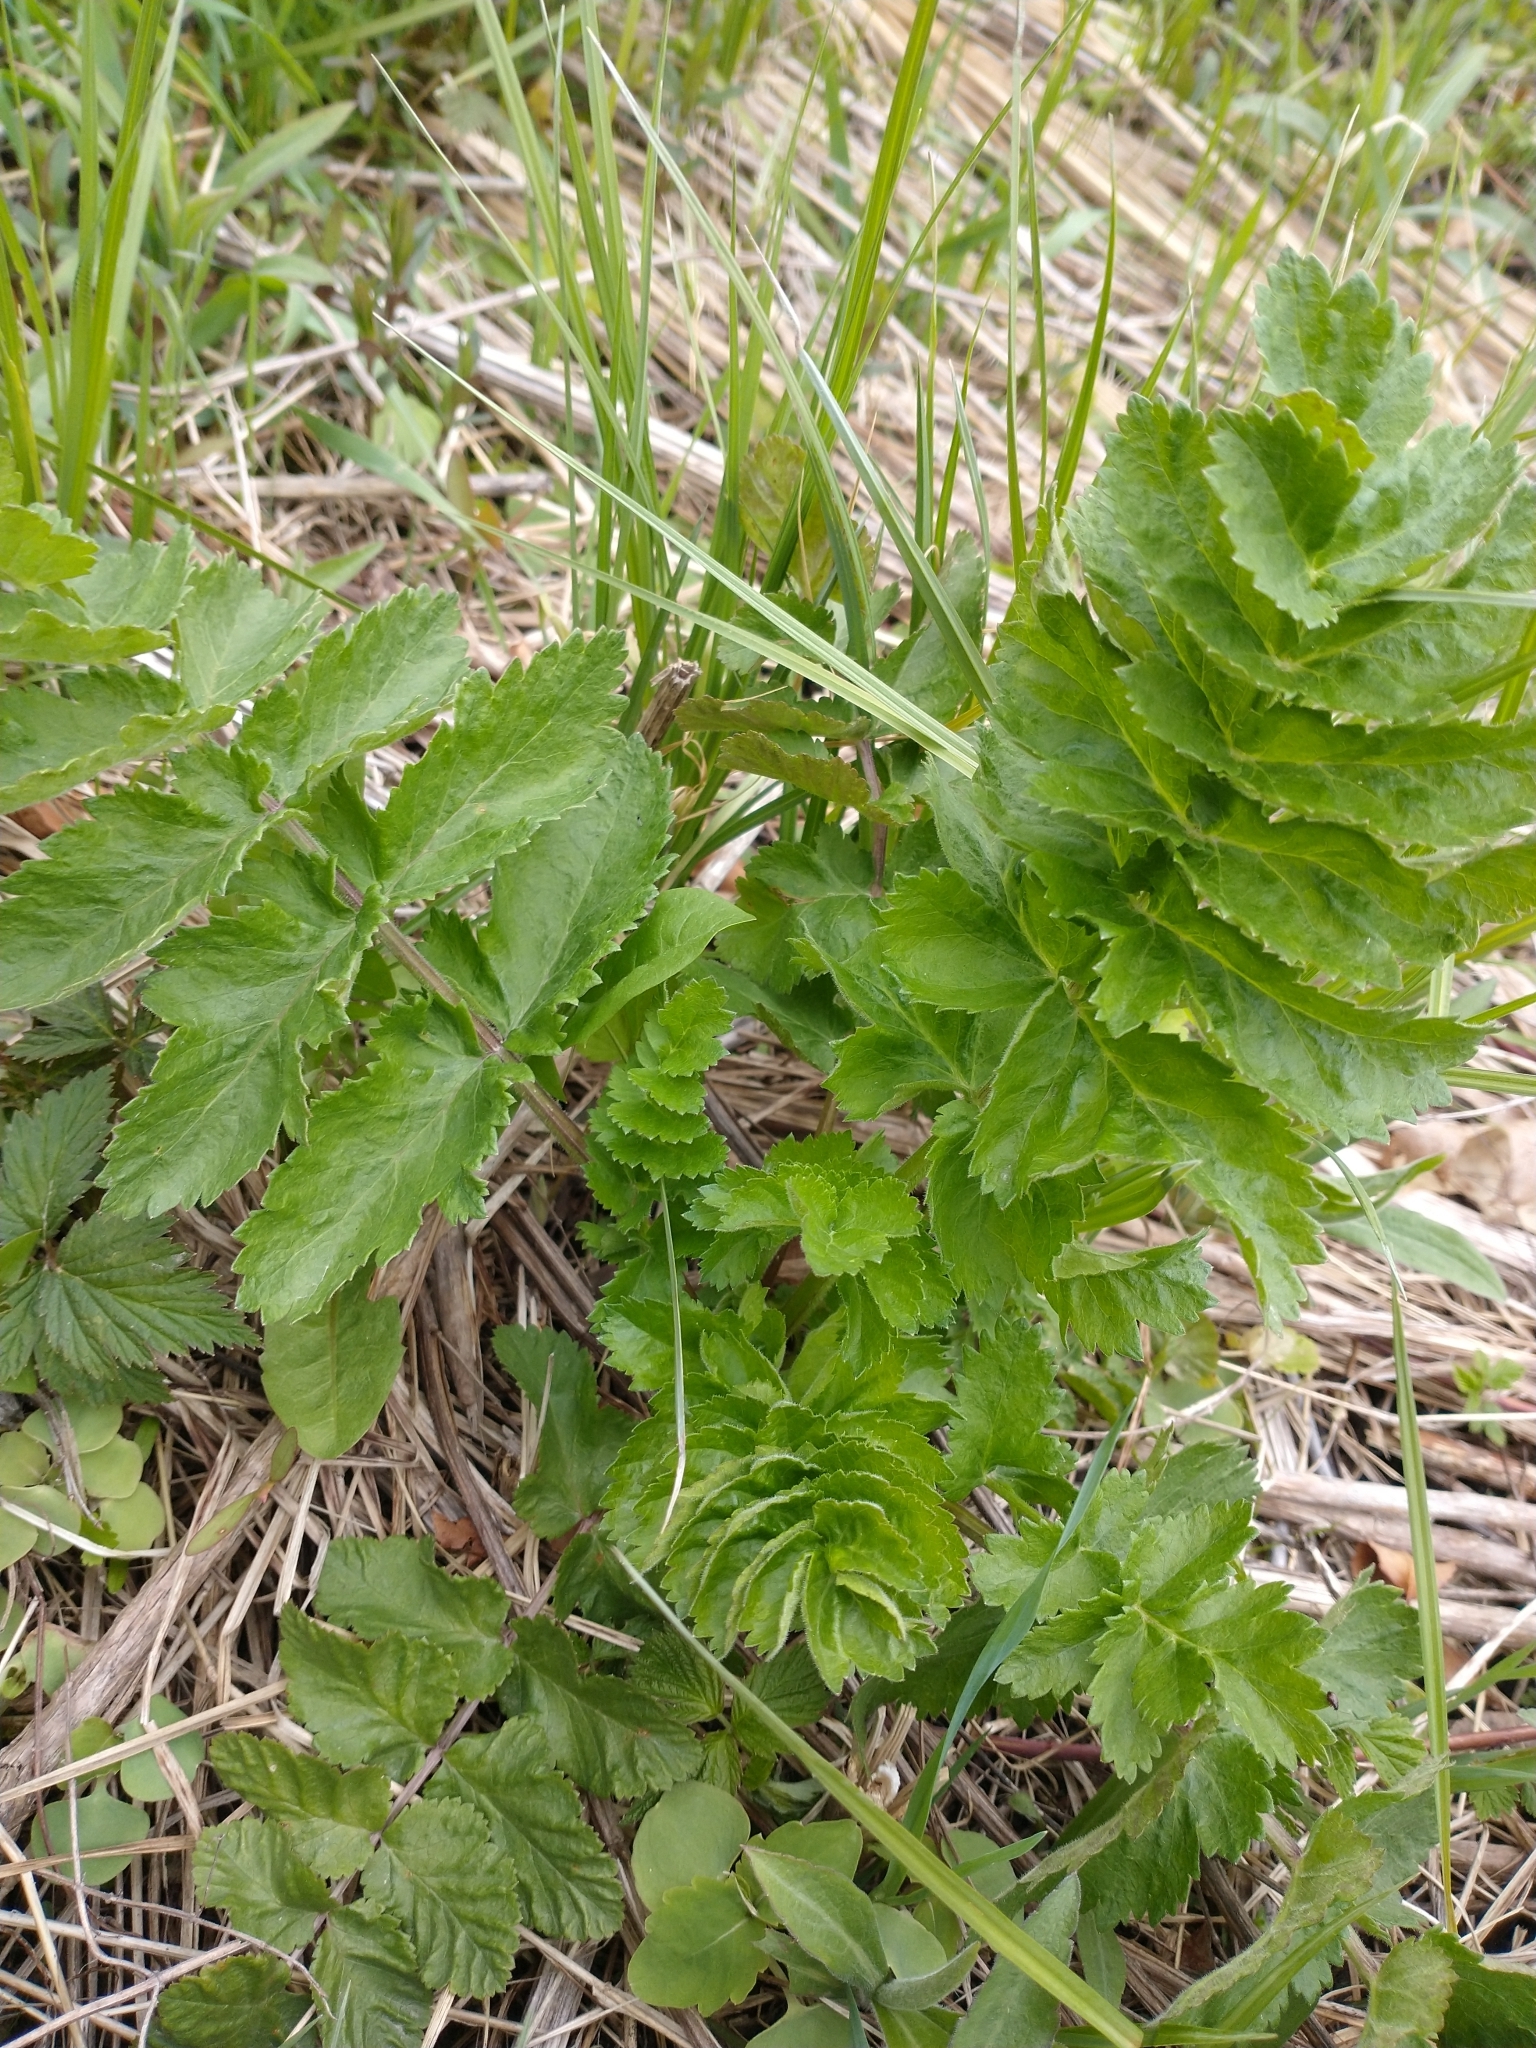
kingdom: Plantae
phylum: Tracheophyta
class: Magnoliopsida
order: Apiales
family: Apiaceae
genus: Pastinaca
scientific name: Pastinaca sativa
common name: Wild parsnip
